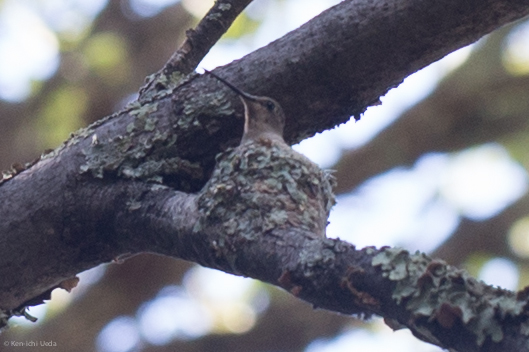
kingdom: Animalia
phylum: Chordata
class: Aves
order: Apodiformes
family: Trochilidae
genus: Archilochus
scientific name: Archilochus alexandri
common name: Black-chinned hummingbird
